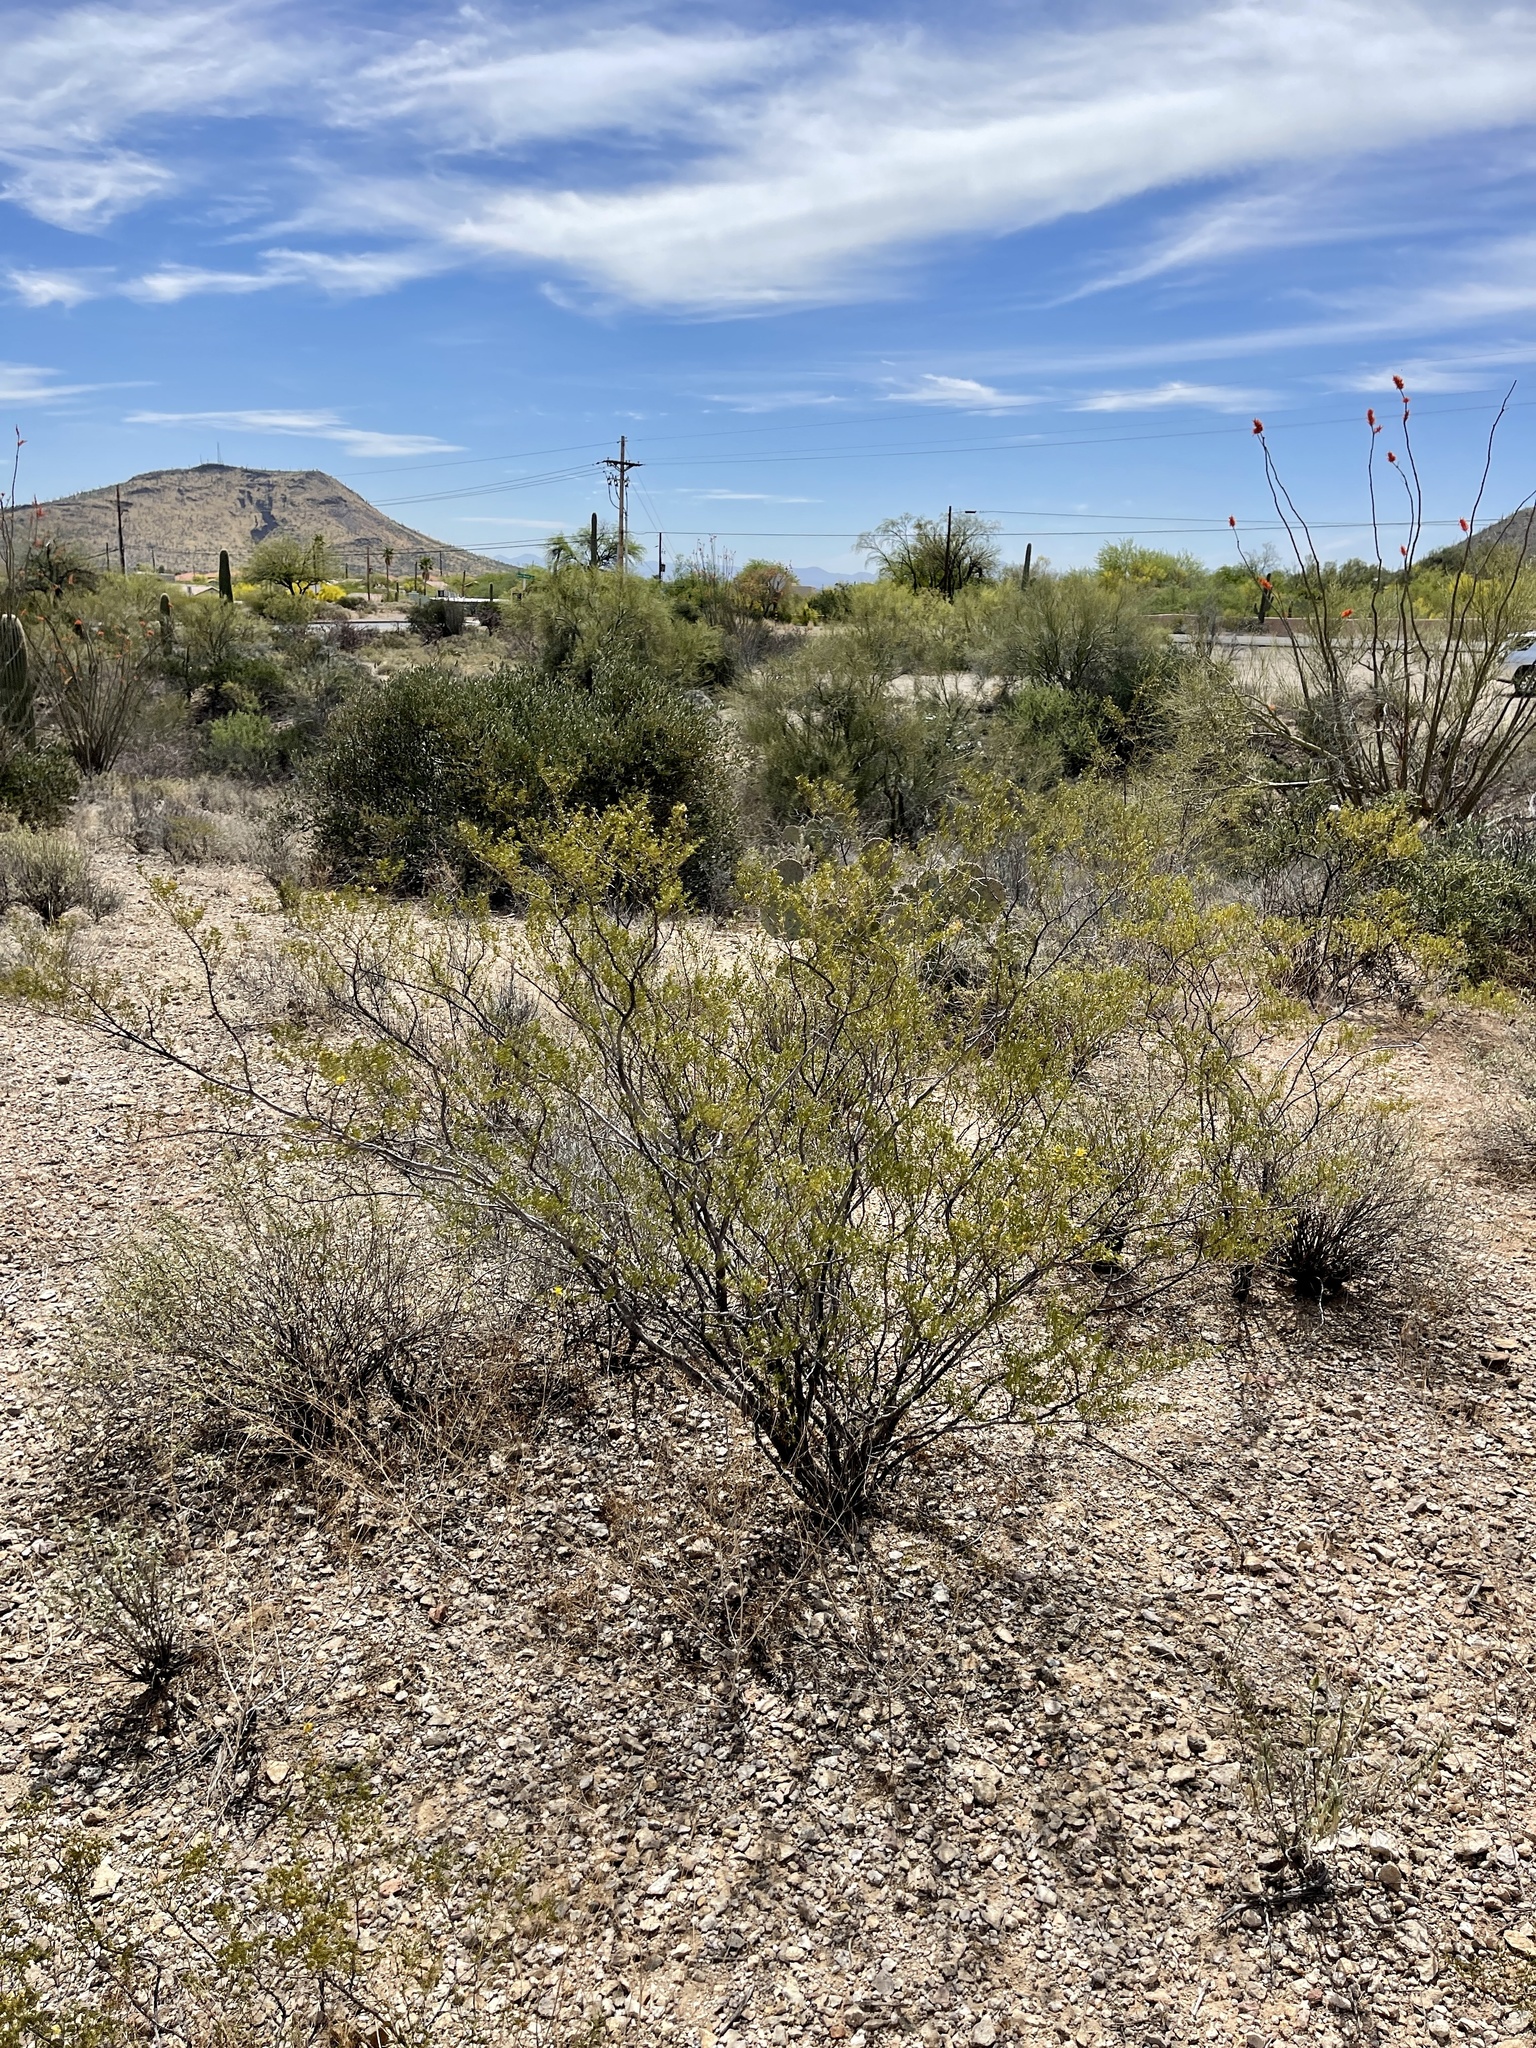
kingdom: Plantae
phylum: Tracheophyta
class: Magnoliopsida
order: Zygophyllales
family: Zygophyllaceae
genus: Larrea
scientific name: Larrea tridentata
